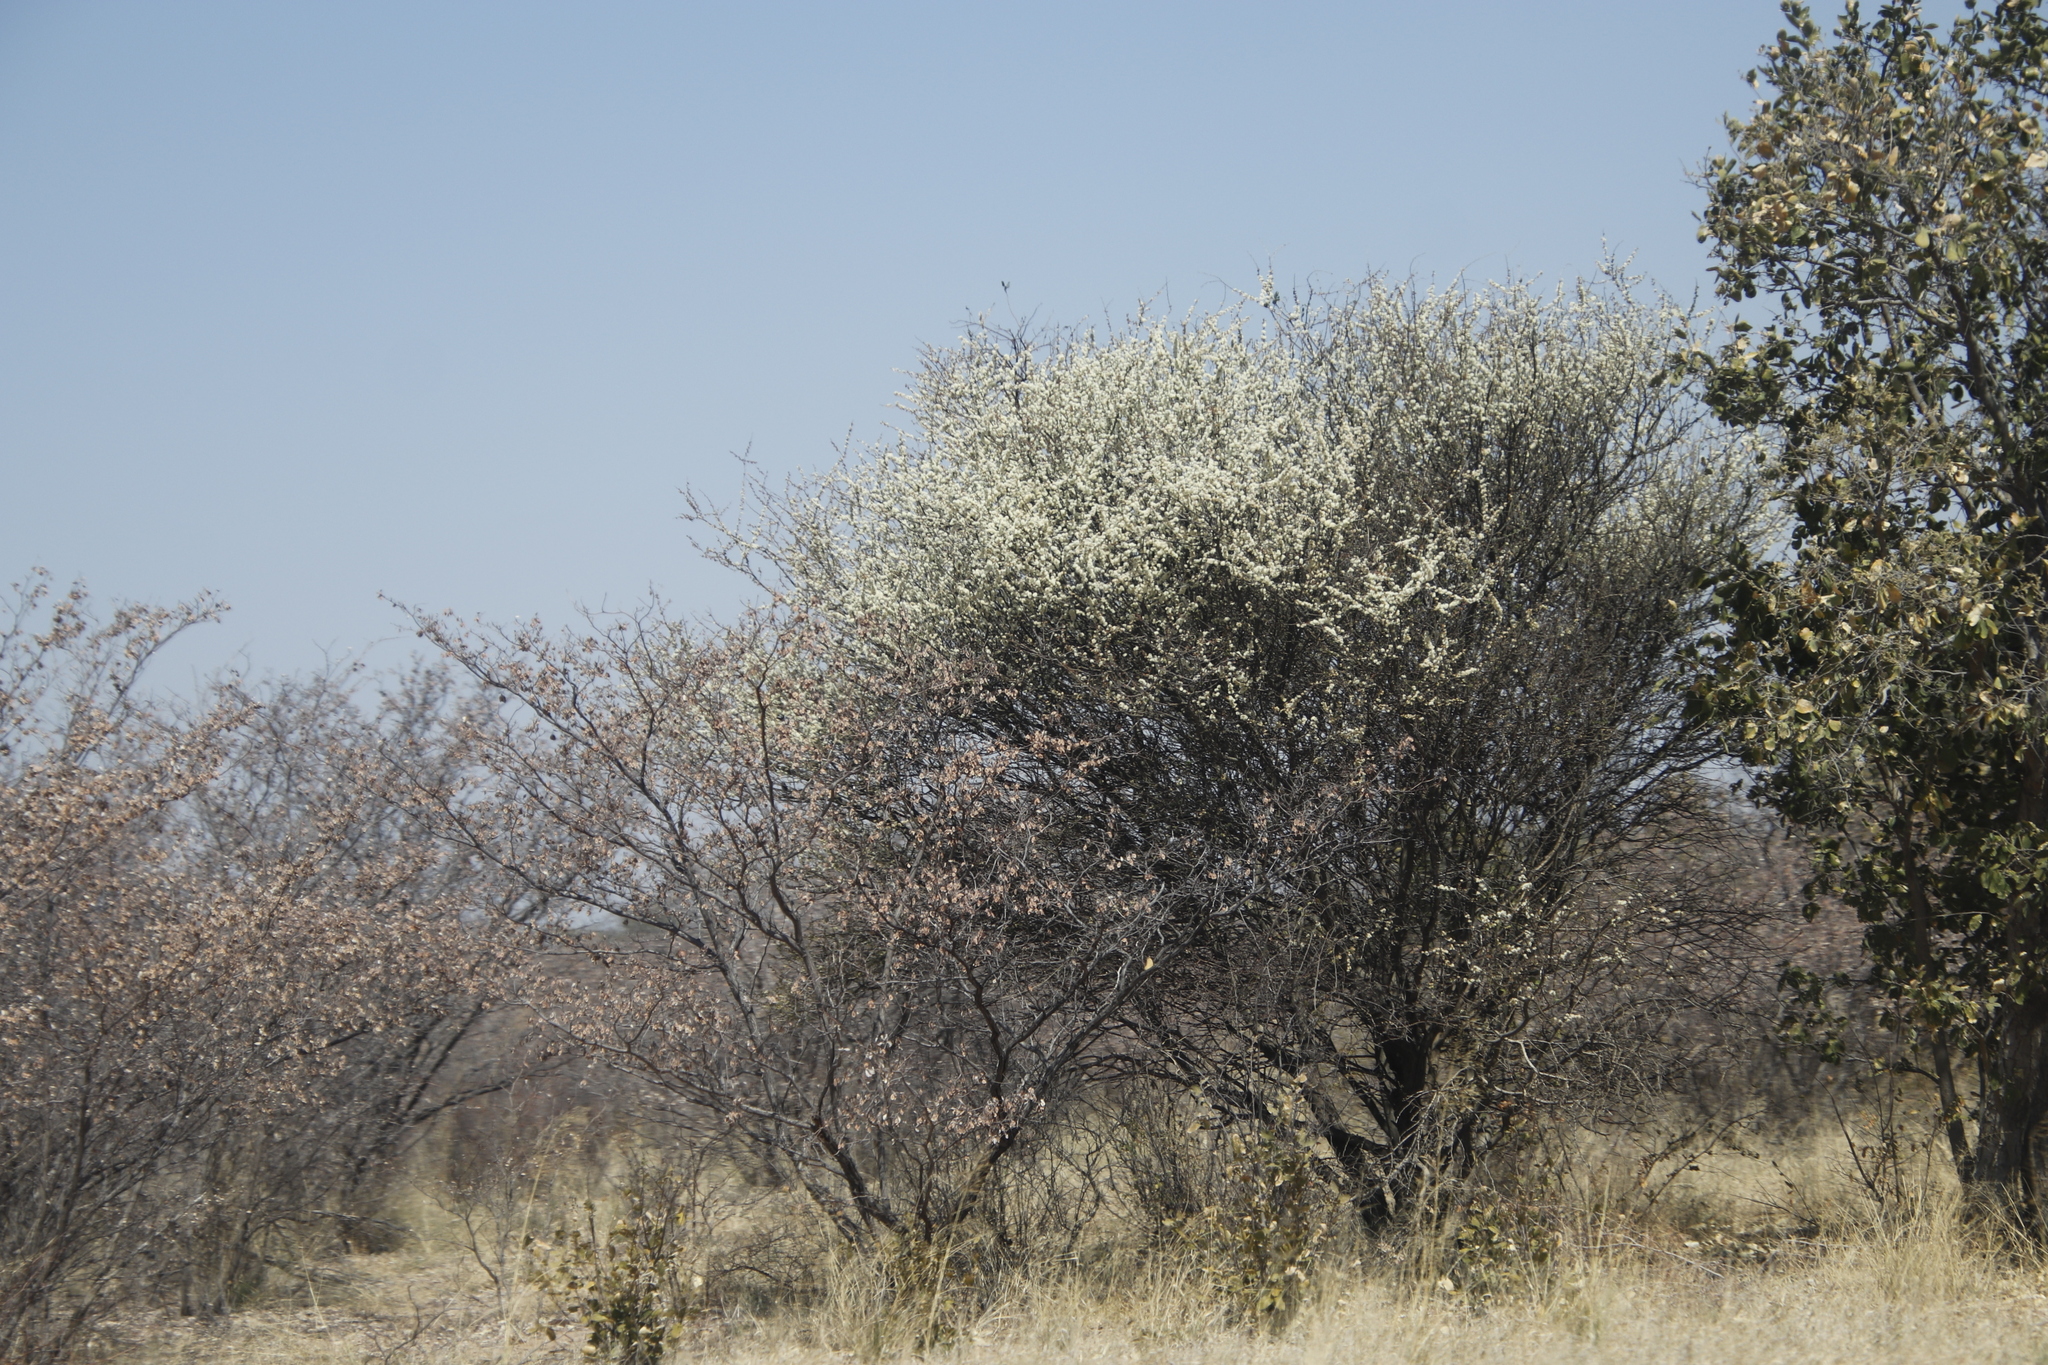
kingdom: Plantae
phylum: Tracheophyta
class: Magnoliopsida
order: Fabales
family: Fabaceae
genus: Senegalia
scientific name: Senegalia mellifera
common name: Hookthorn
